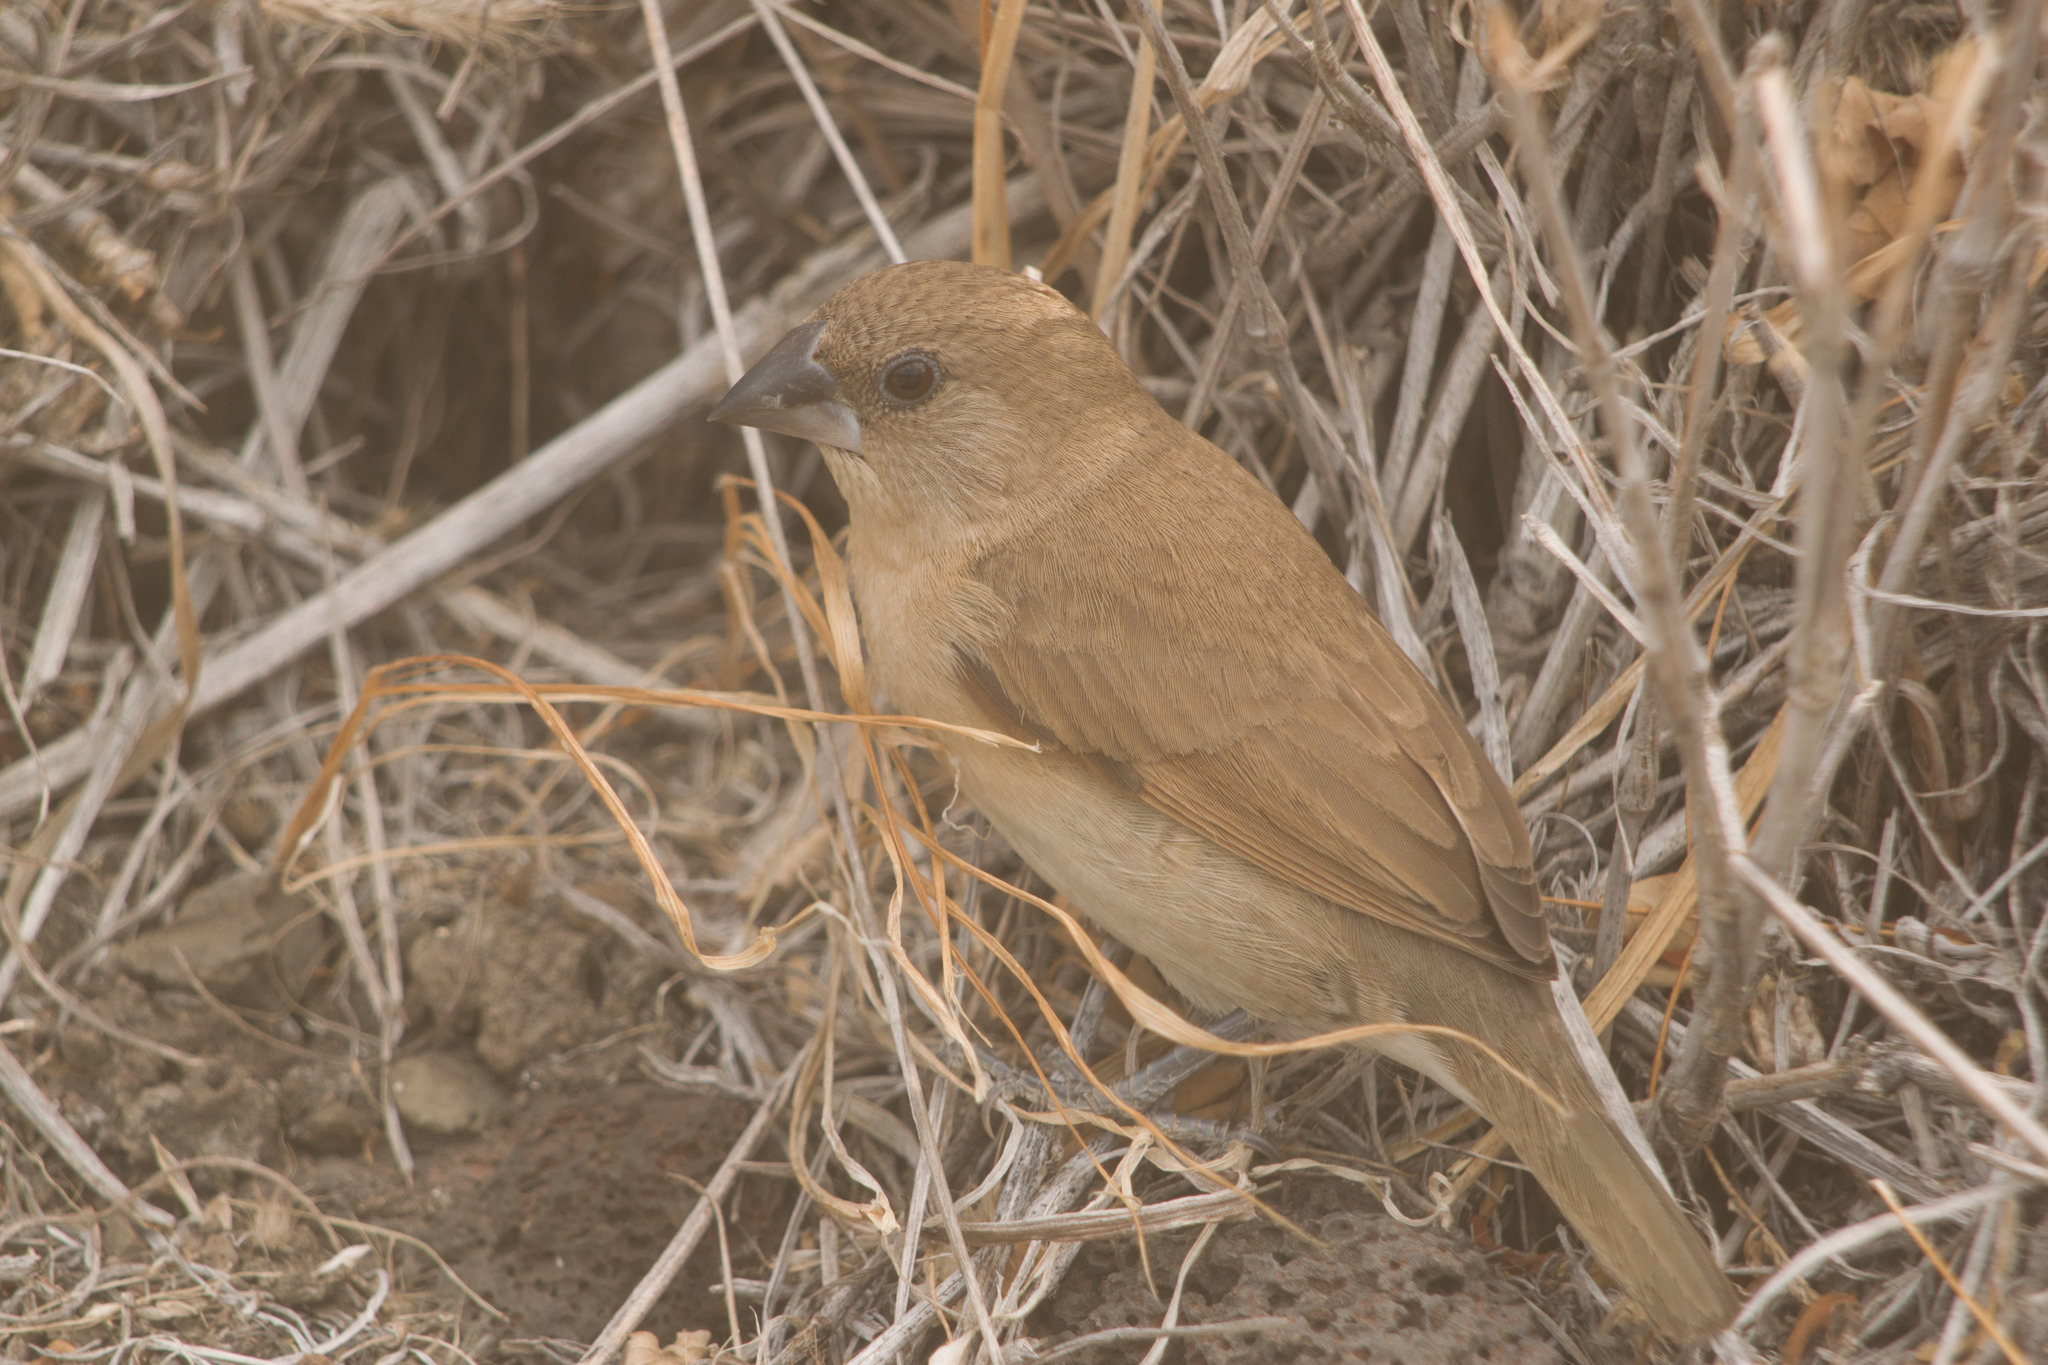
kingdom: Animalia
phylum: Chordata
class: Aves
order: Passeriformes
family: Estrildidae
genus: Lonchura
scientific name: Lonchura punctulata
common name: Scaly-breasted munia
